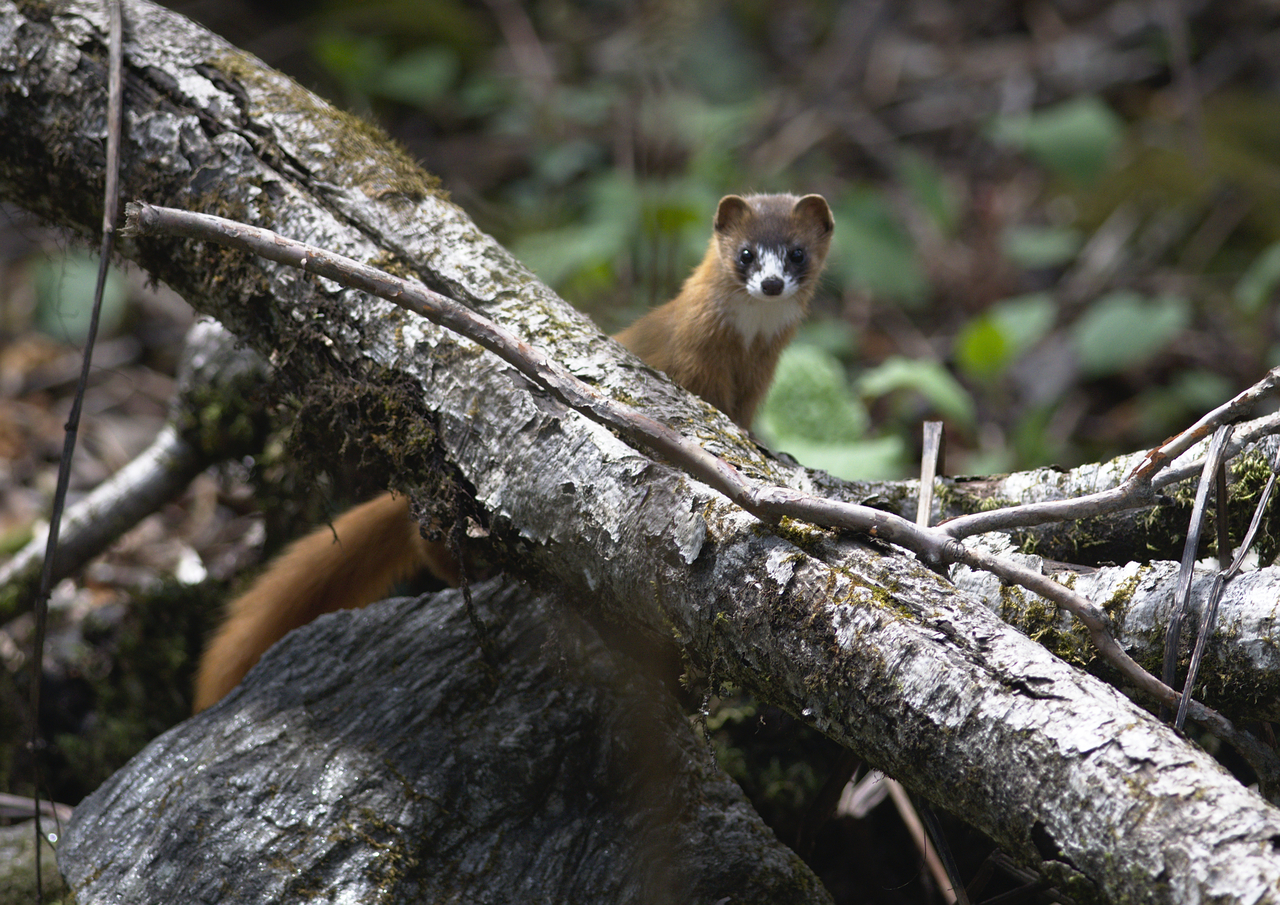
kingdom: Animalia
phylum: Chordata
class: Mammalia
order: Carnivora
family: Mustelidae
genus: Mustela
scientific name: Mustela sibirica
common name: Siberian weasel
